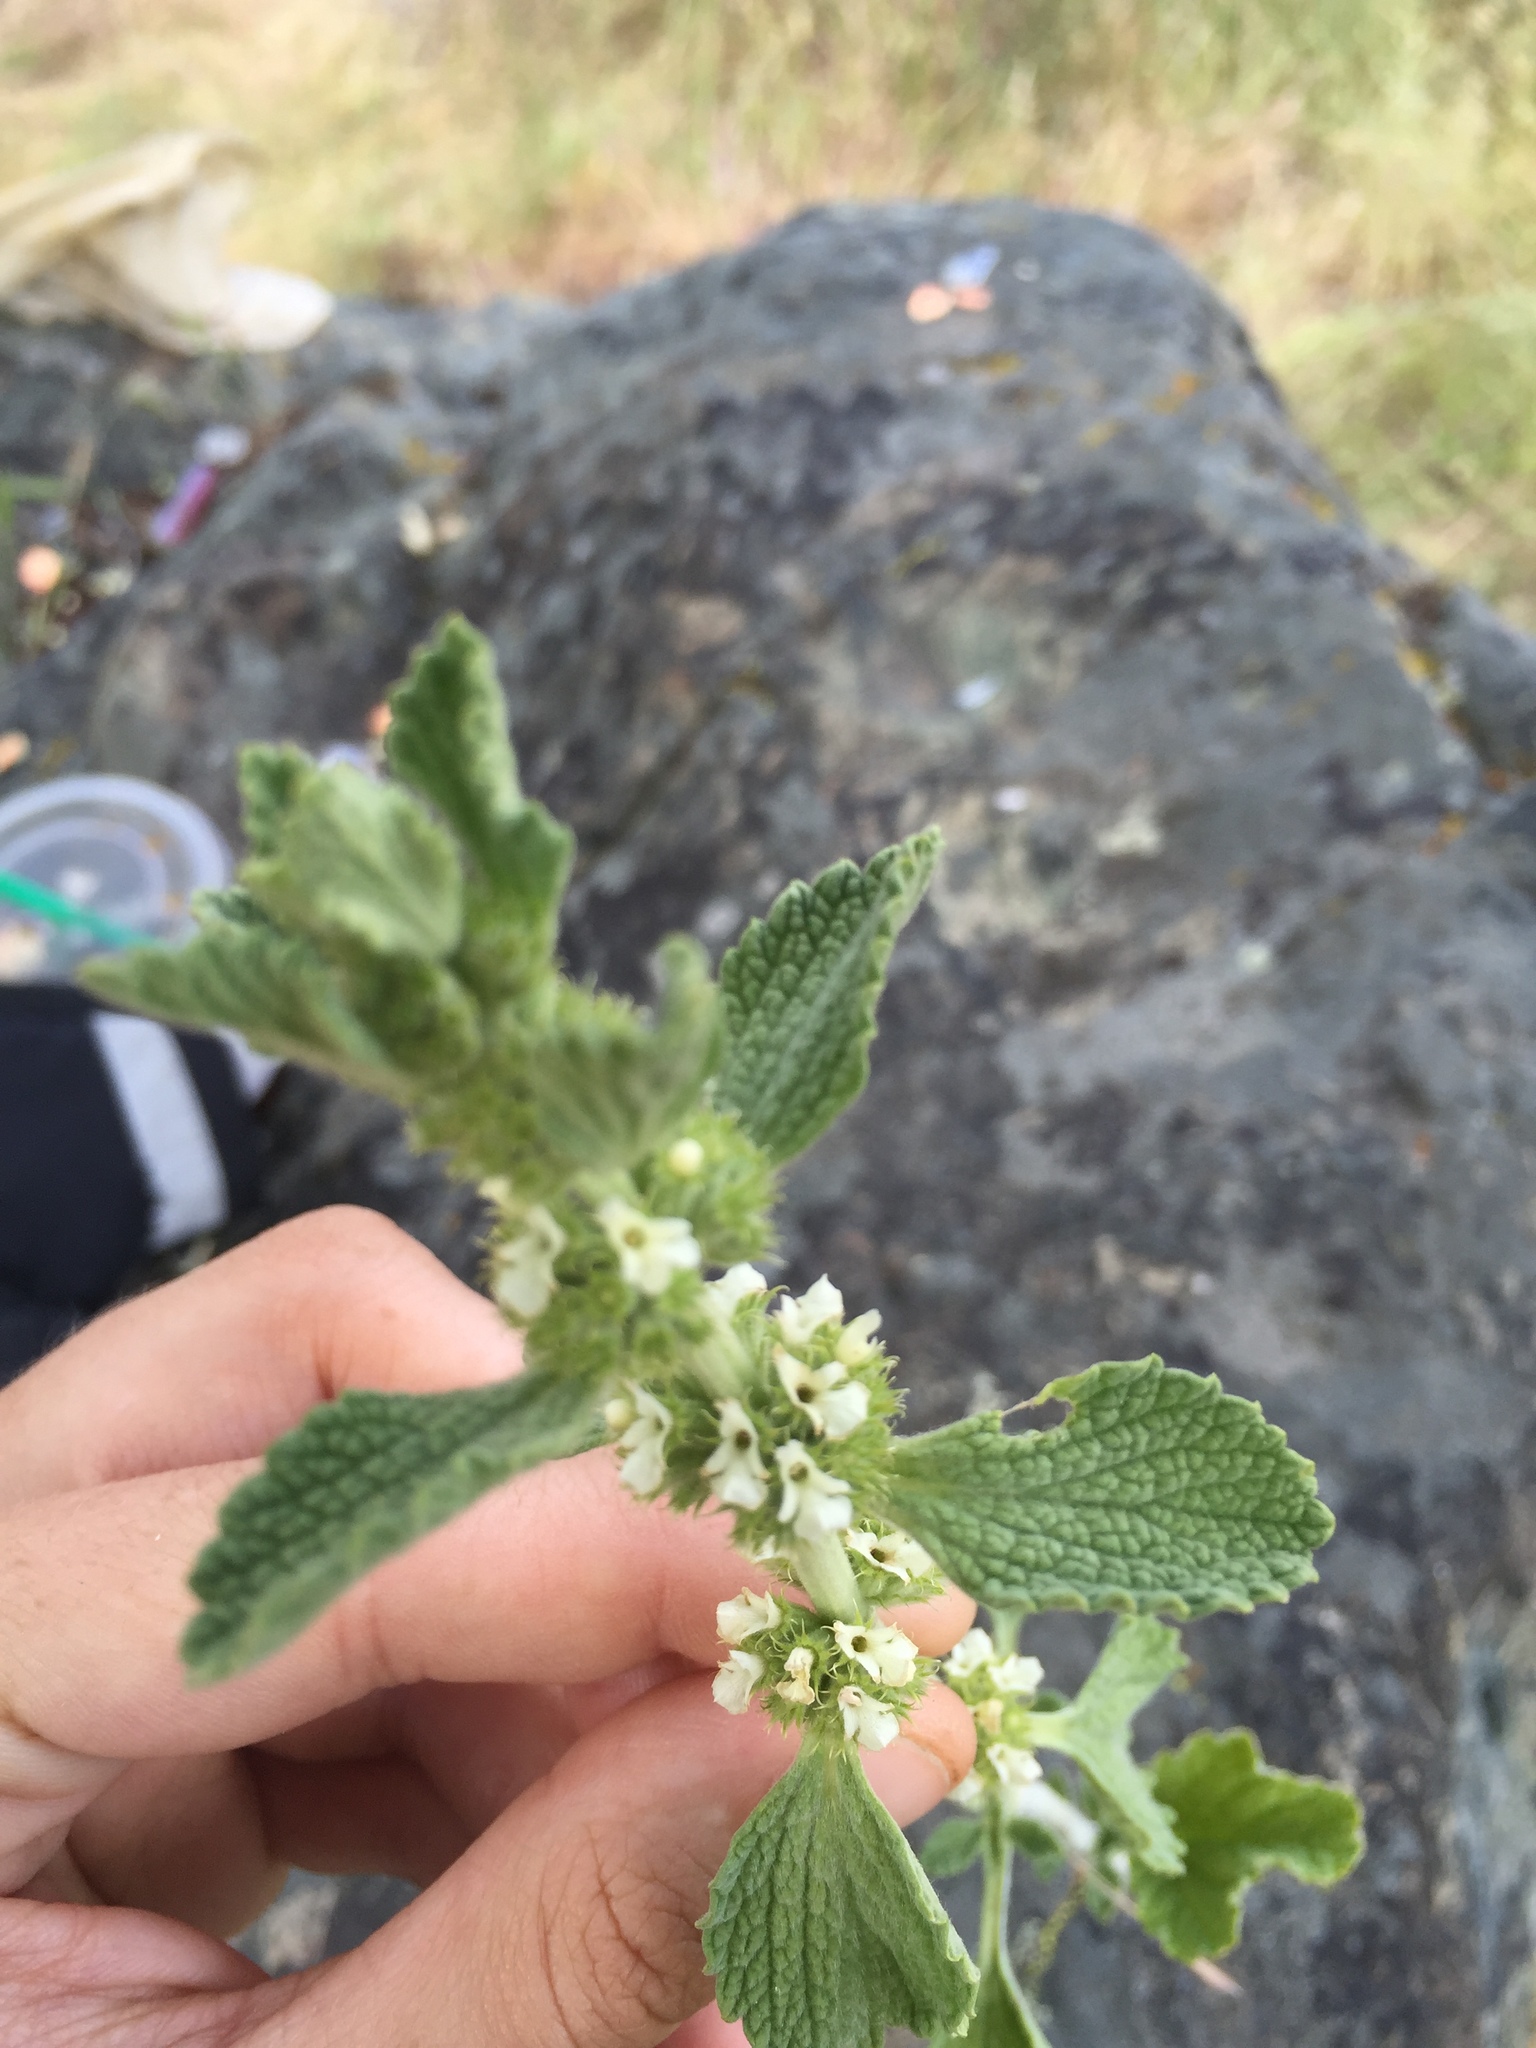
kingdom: Plantae
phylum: Tracheophyta
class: Magnoliopsida
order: Lamiales
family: Lamiaceae
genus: Marrubium
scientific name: Marrubium vulgare
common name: Horehound
